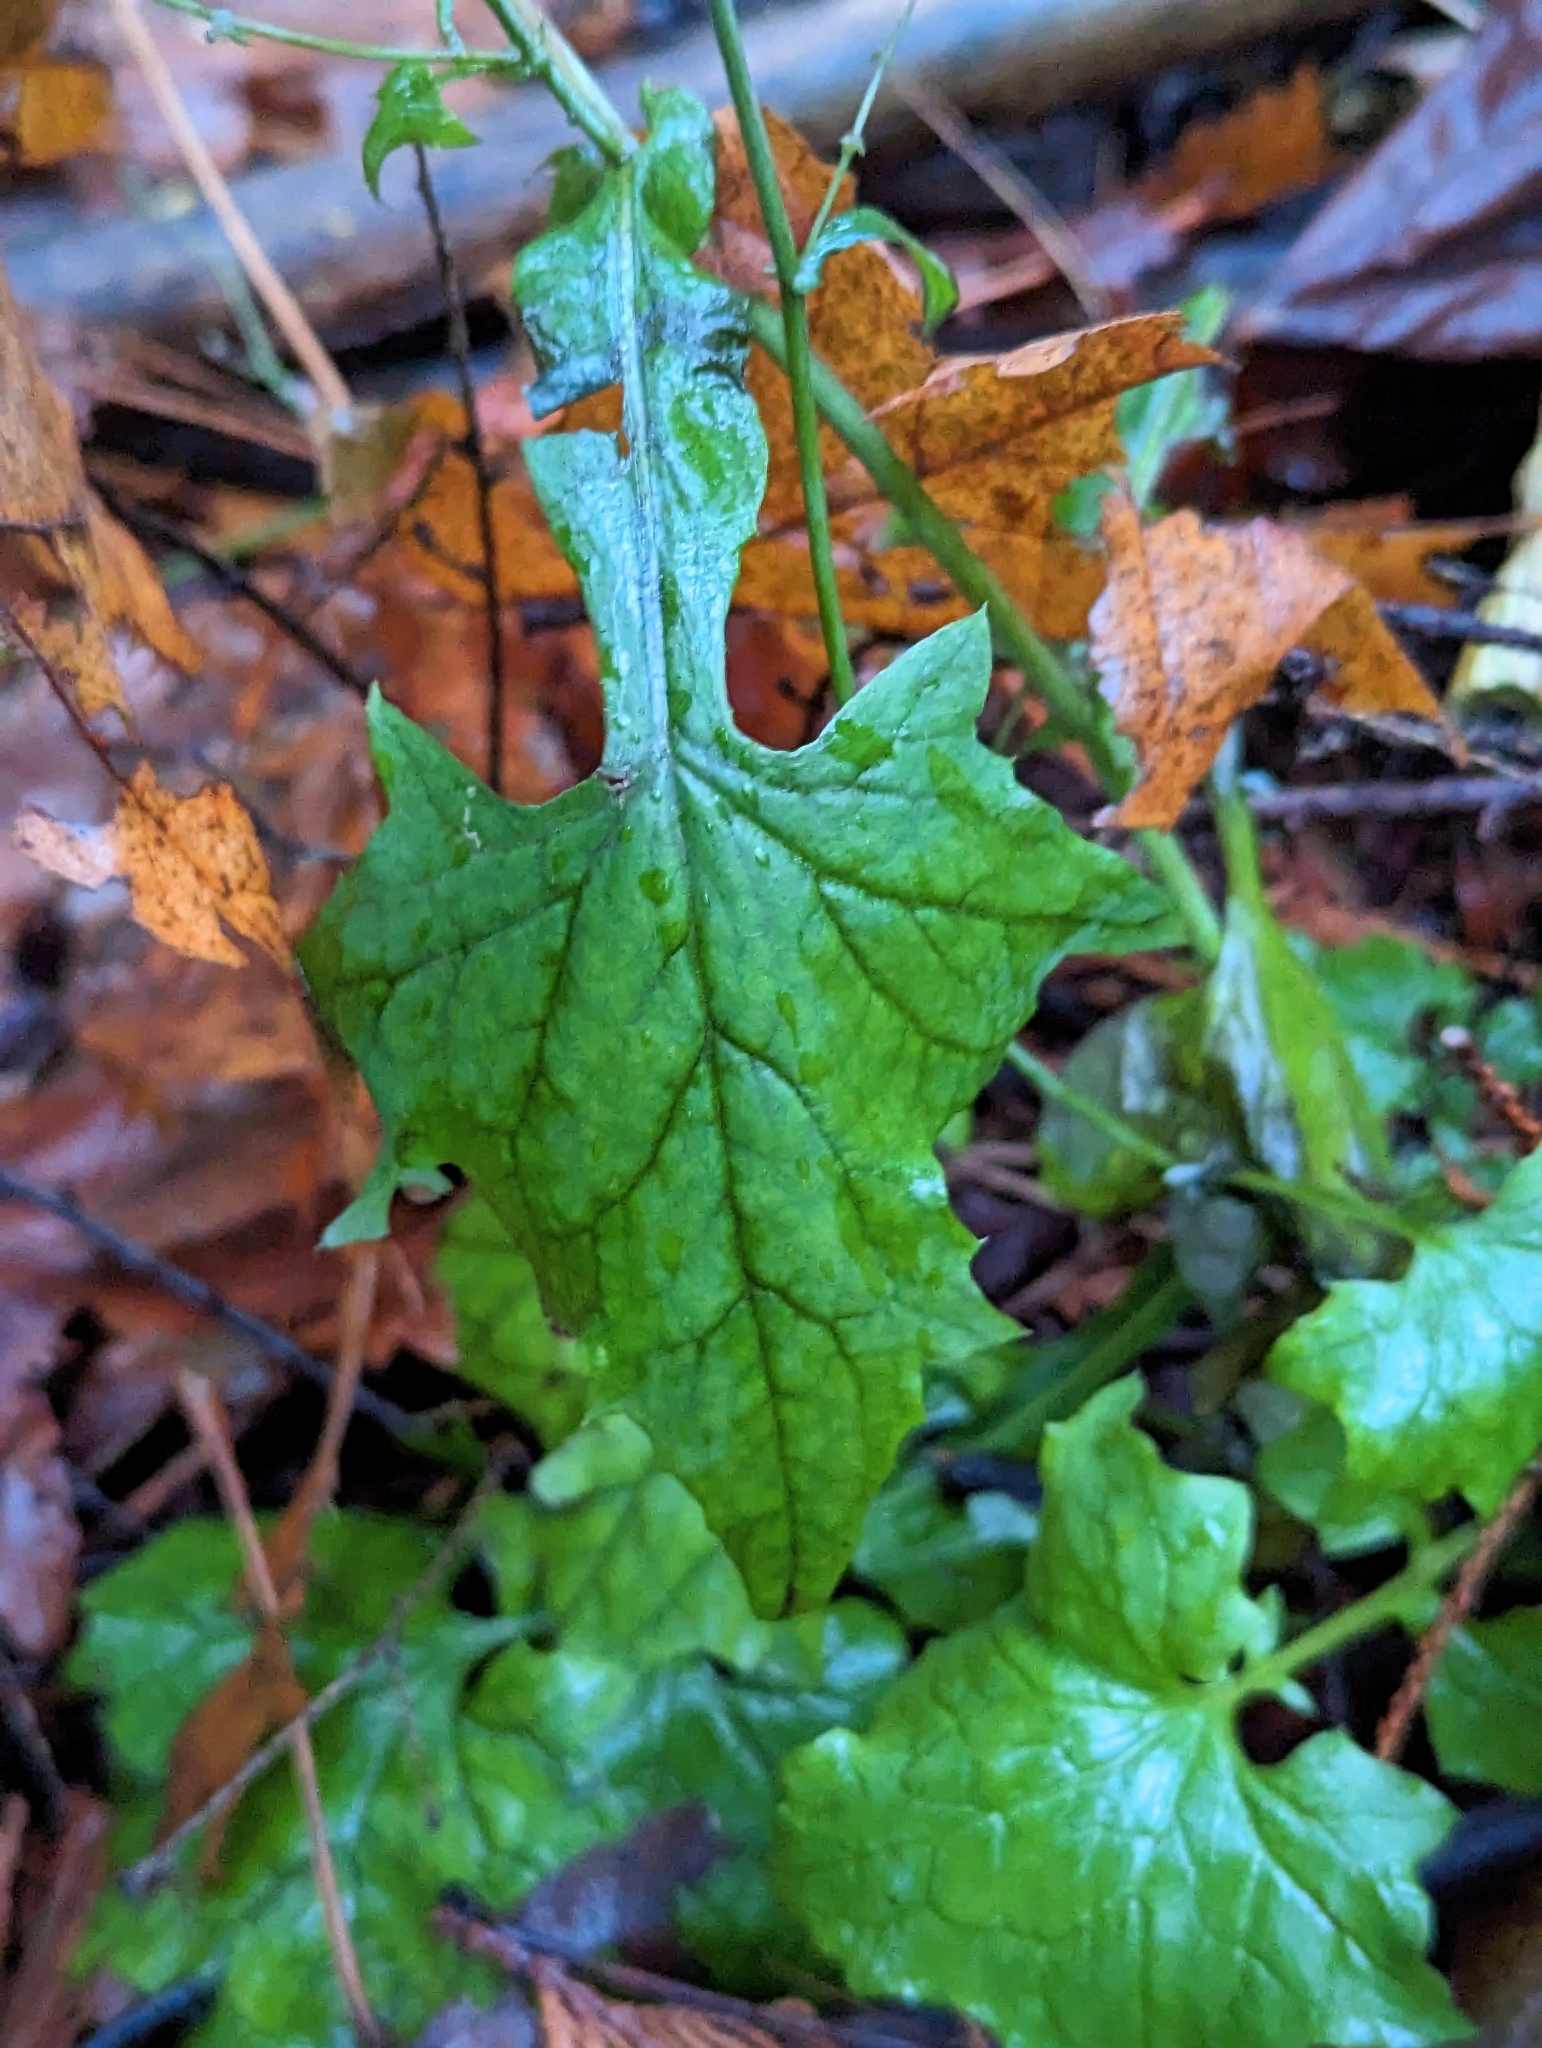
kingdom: Plantae
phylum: Tracheophyta
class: Magnoliopsida
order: Asterales
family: Asteraceae
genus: Mycelis
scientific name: Mycelis muralis
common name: Wall lettuce
